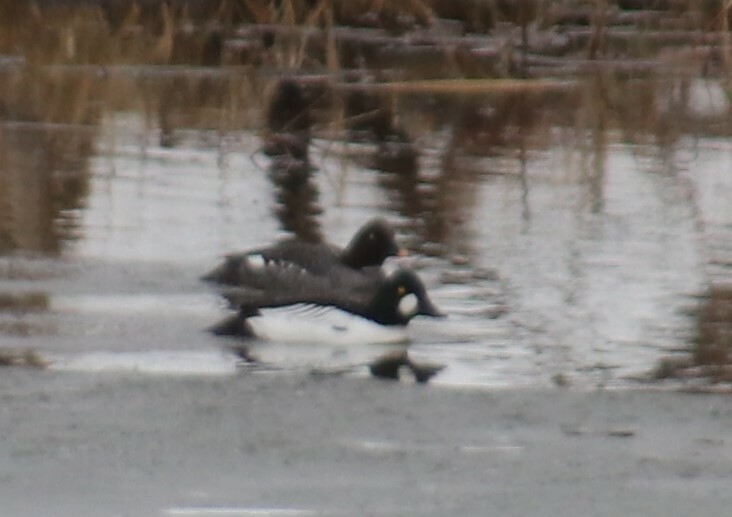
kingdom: Animalia
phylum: Chordata
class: Aves
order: Anseriformes
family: Anatidae
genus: Bucephala
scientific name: Bucephala clangula
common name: Common goldeneye
